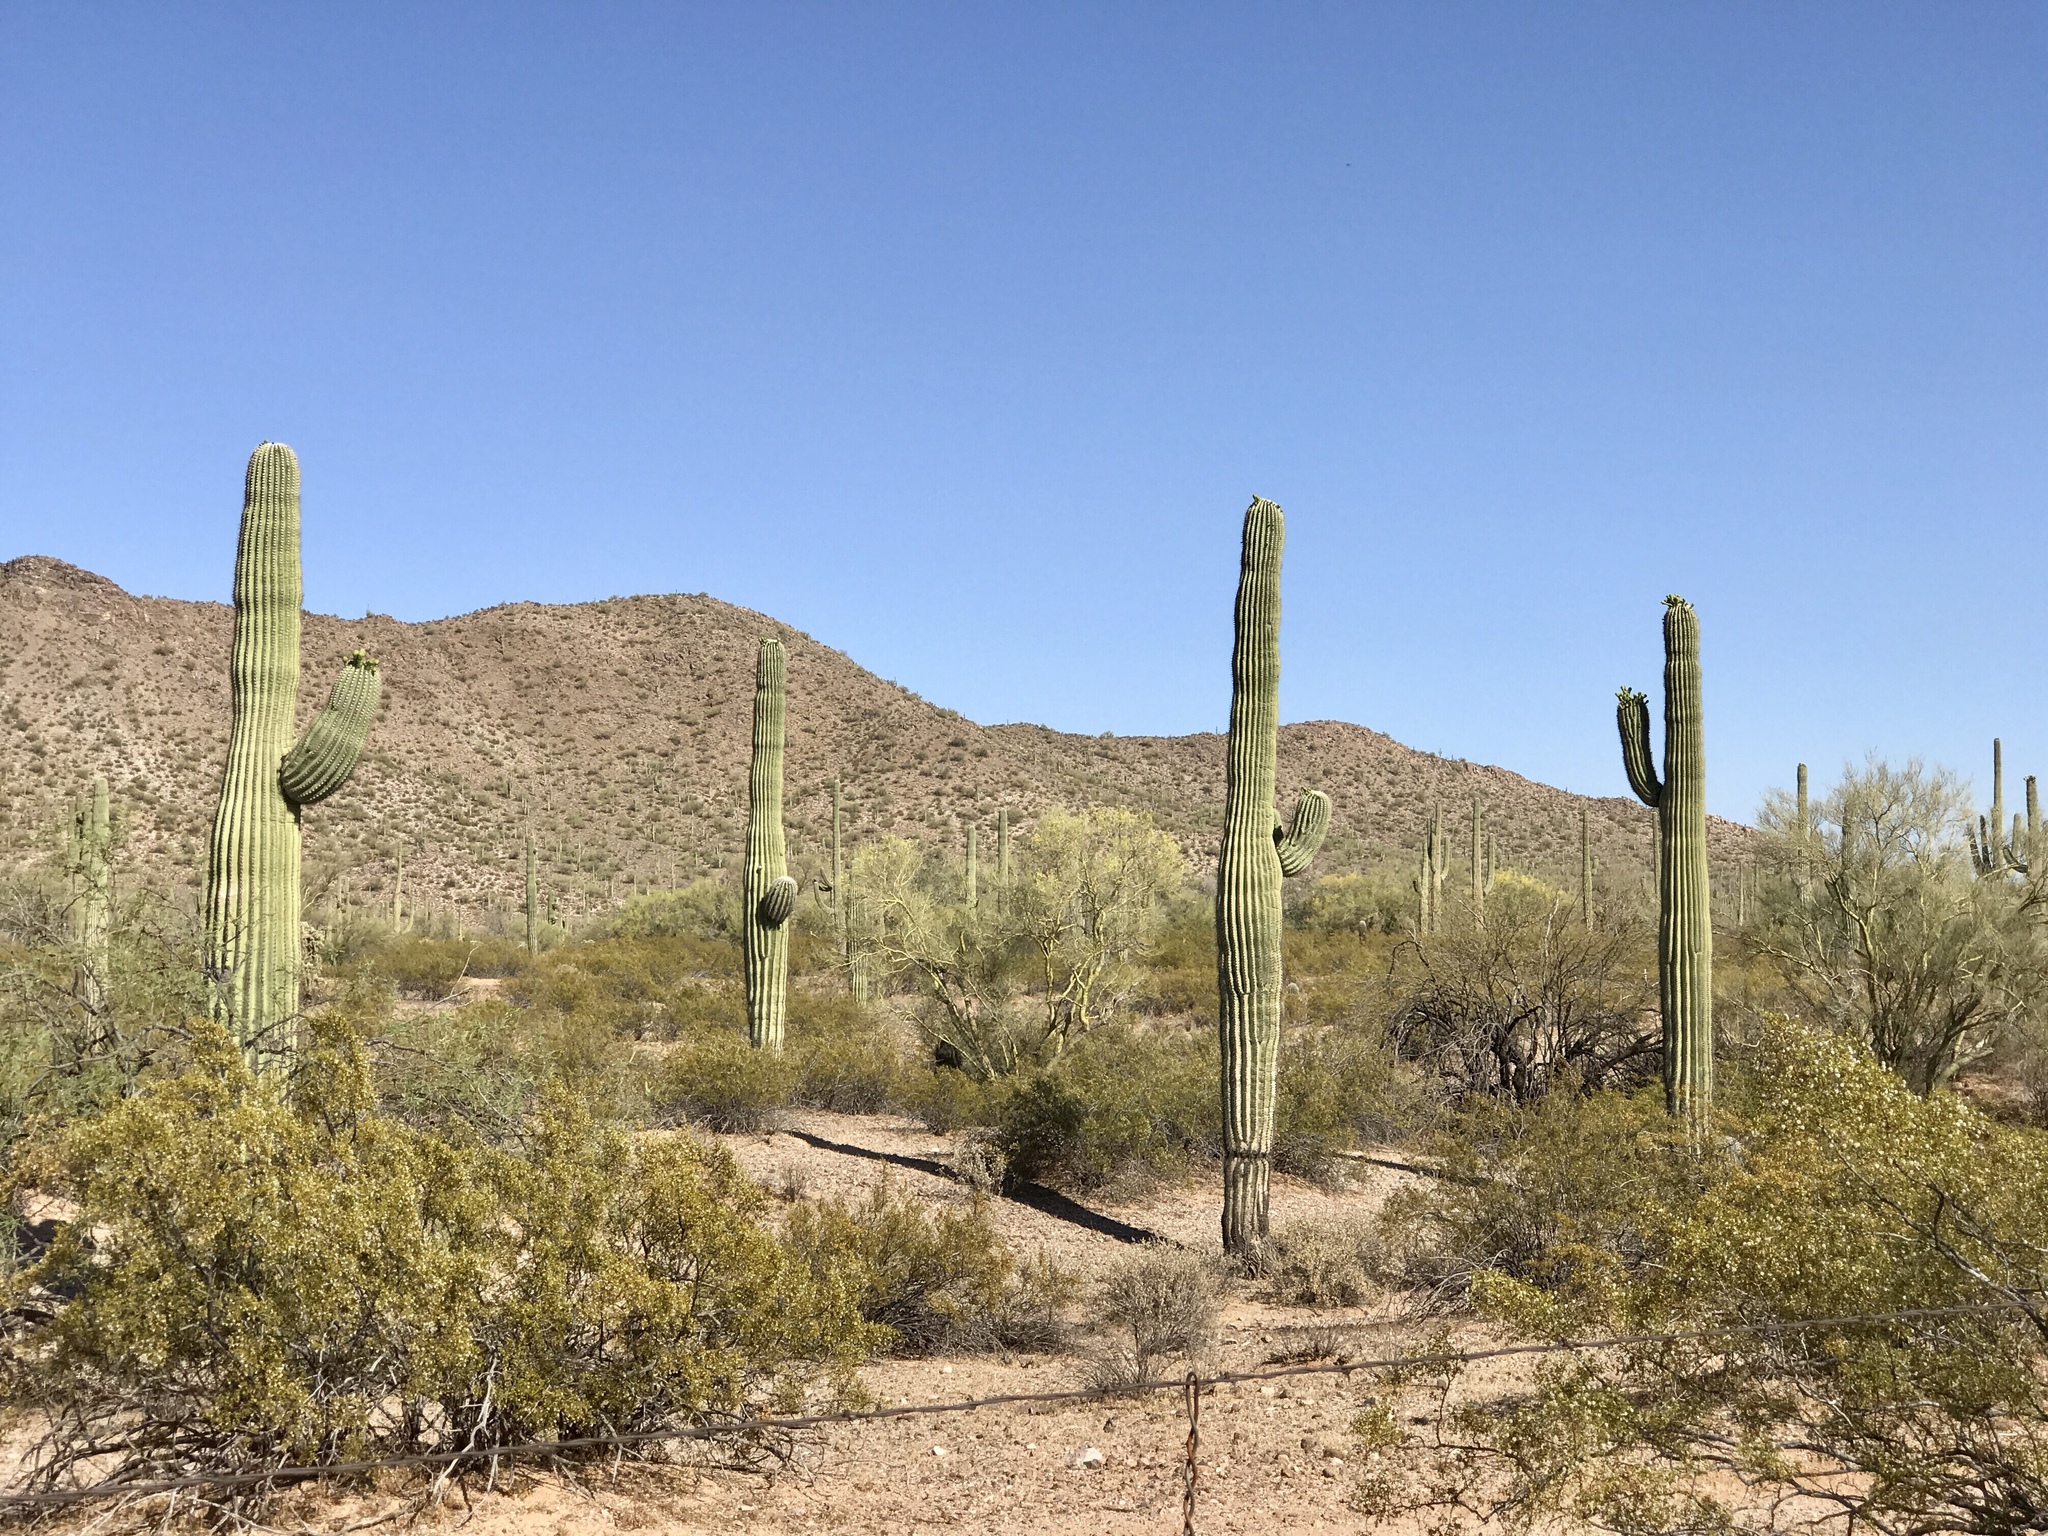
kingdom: Plantae
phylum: Tracheophyta
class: Magnoliopsida
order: Caryophyllales
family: Cactaceae
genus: Carnegiea
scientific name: Carnegiea gigantea
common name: Saguaro
